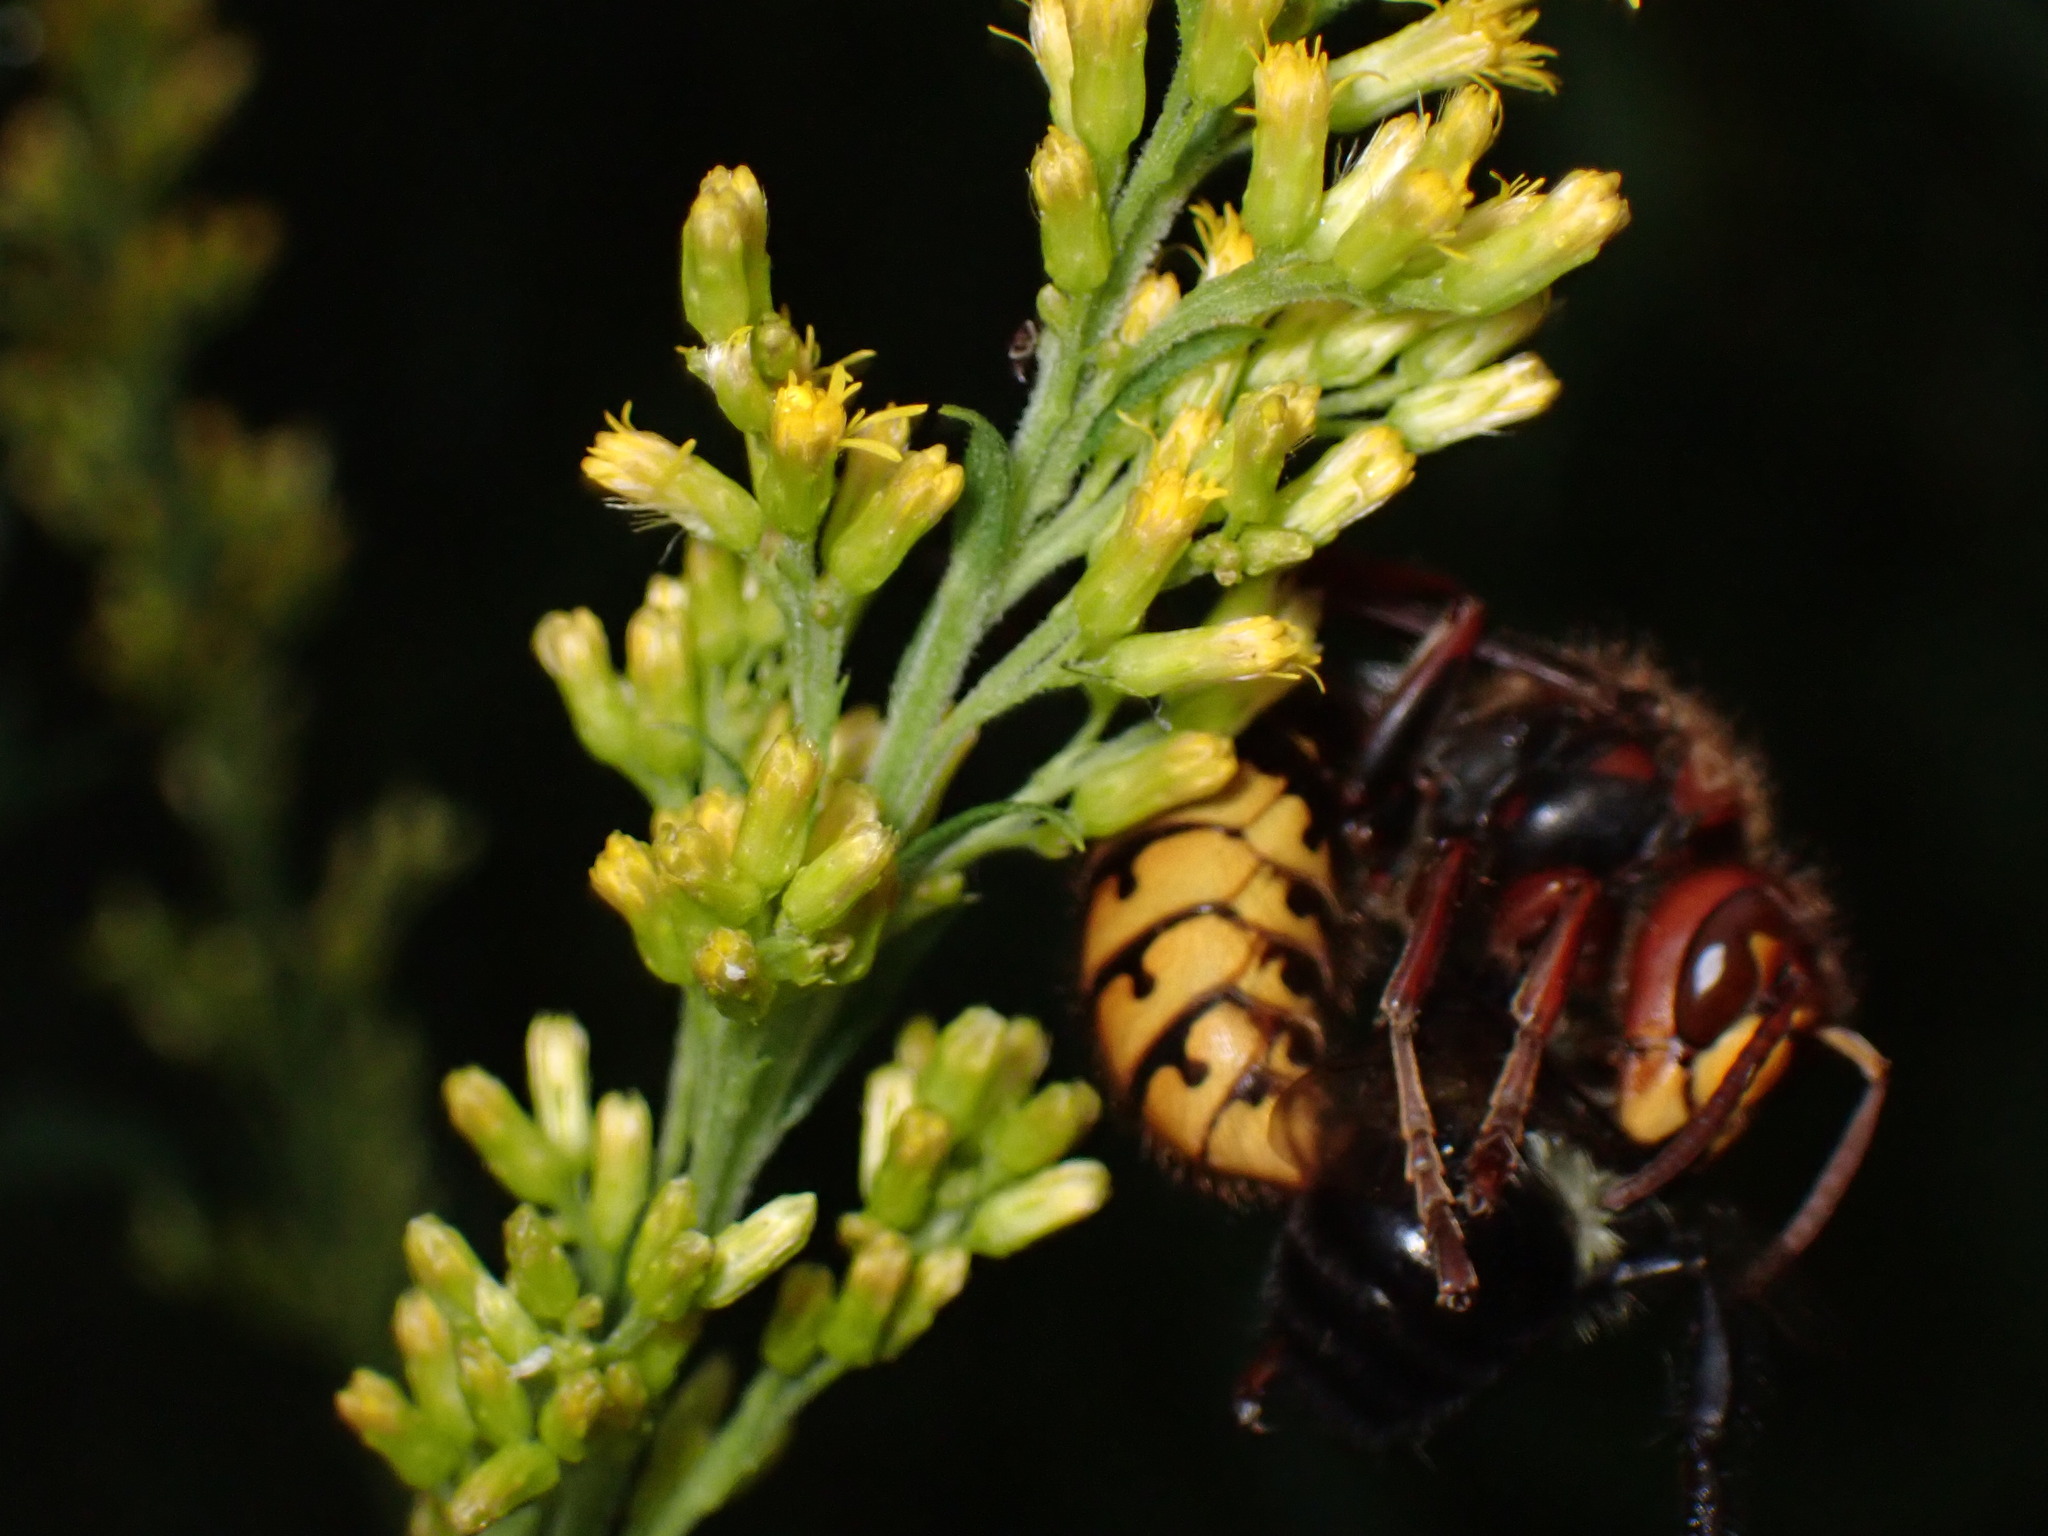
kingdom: Animalia
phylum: Arthropoda
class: Insecta
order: Hymenoptera
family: Vespidae
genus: Vespa
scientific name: Vespa crabro
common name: Hornet
